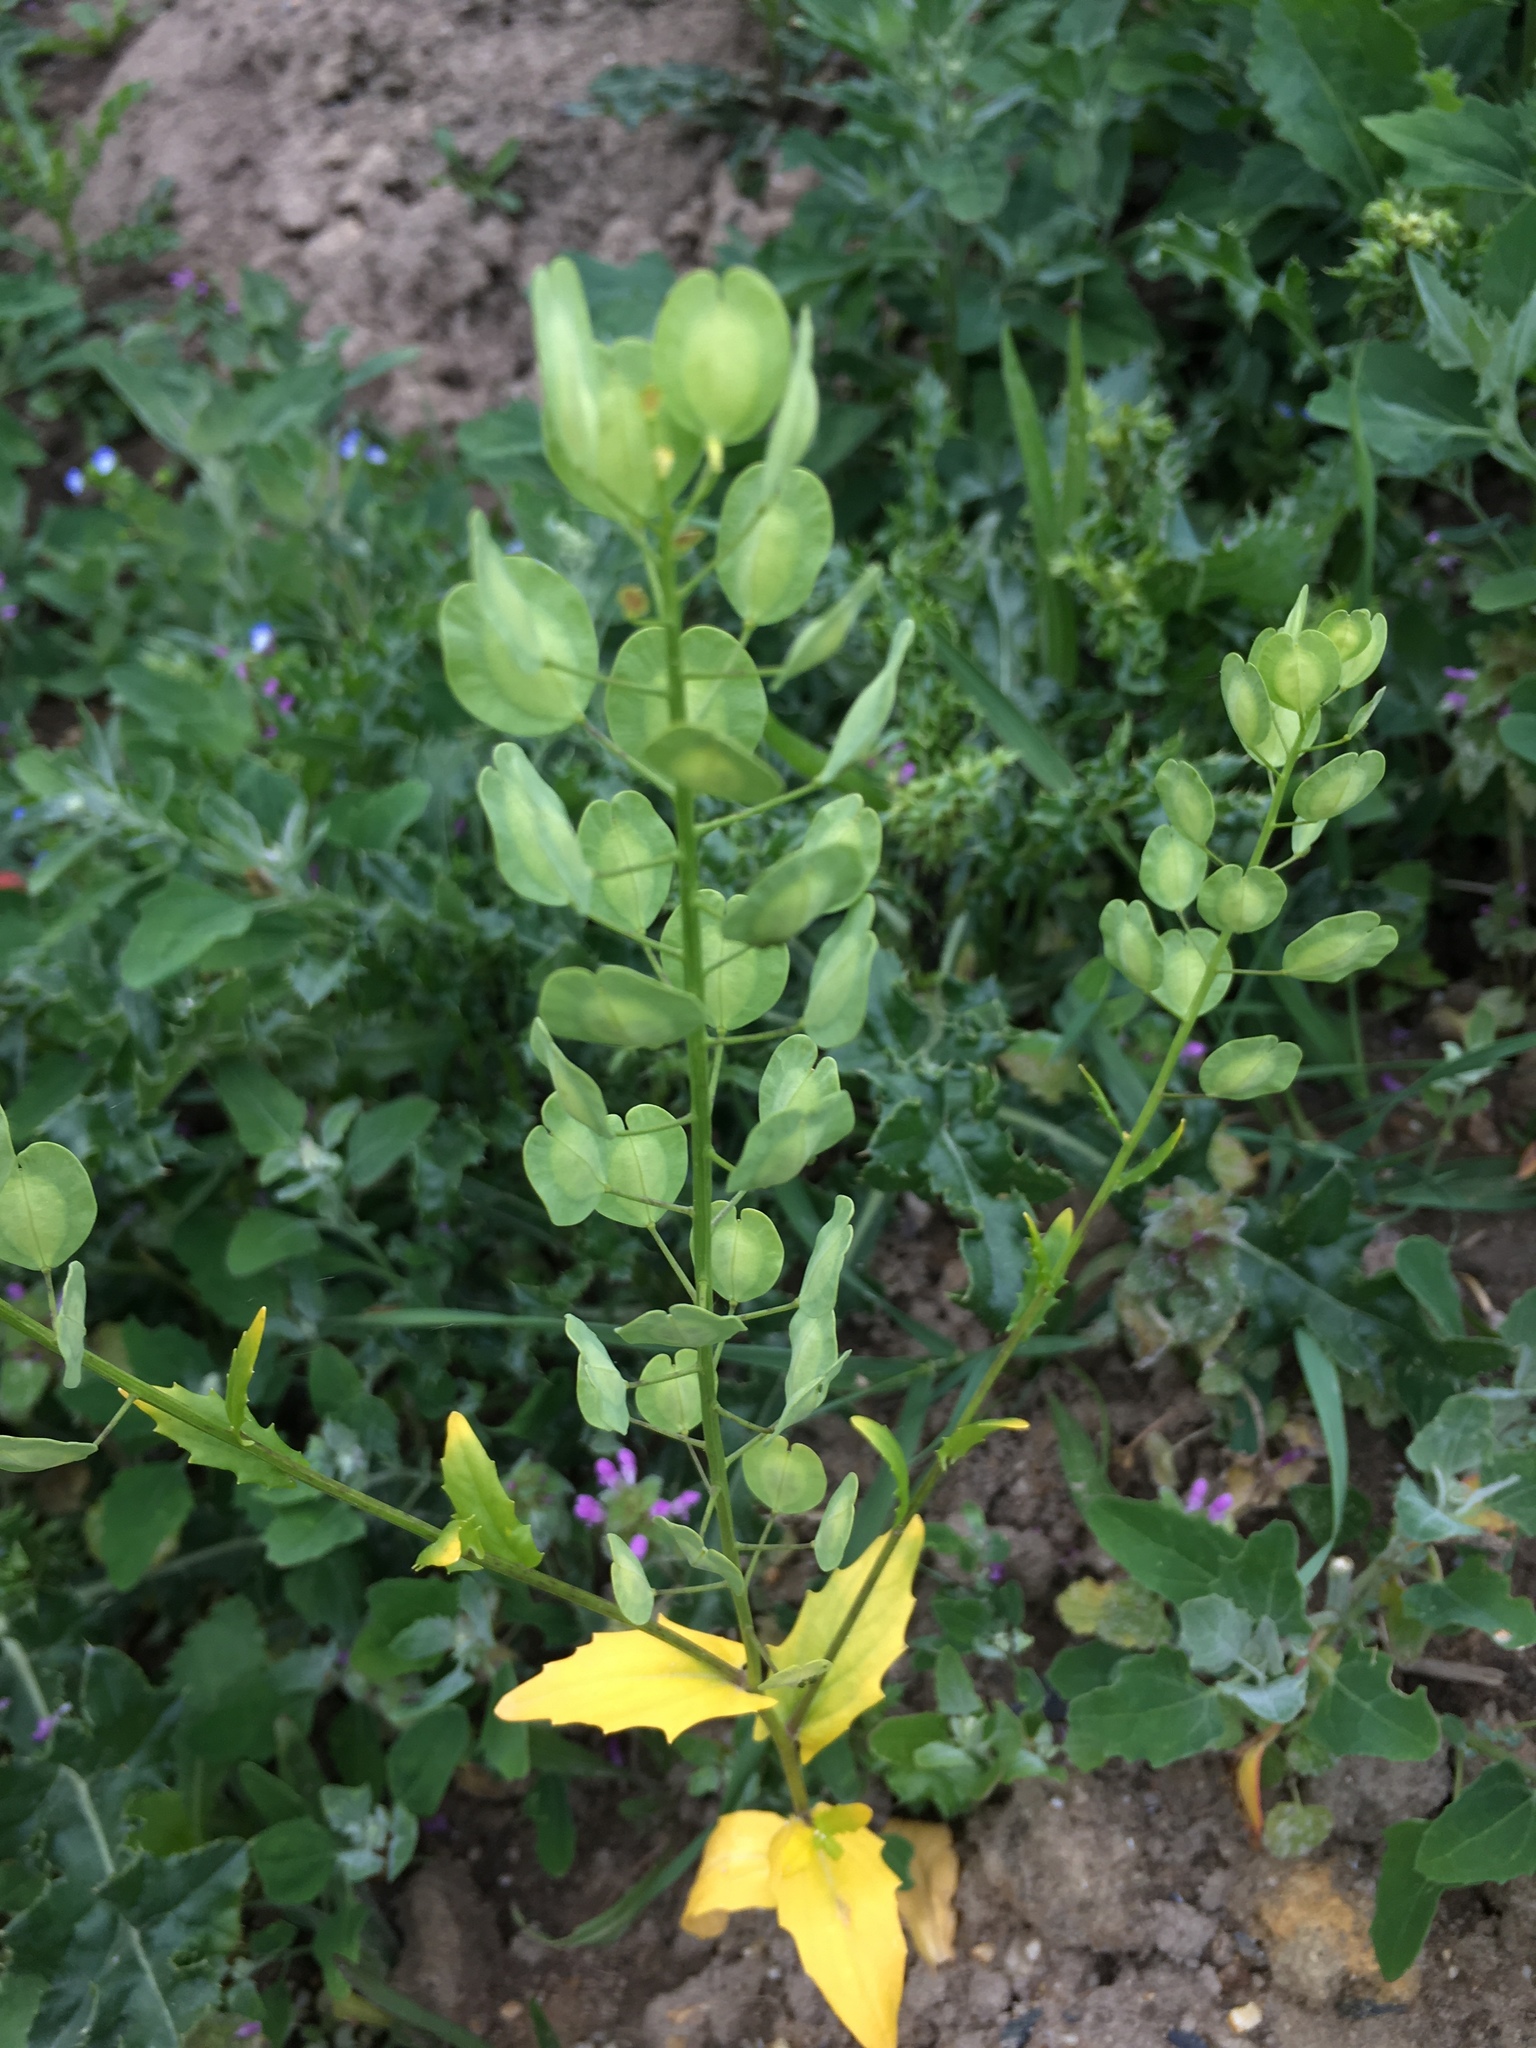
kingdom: Plantae
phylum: Tracheophyta
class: Magnoliopsida
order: Brassicales
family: Brassicaceae
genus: Thlaspi
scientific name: Thlaspi arvense
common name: Field pennycress
